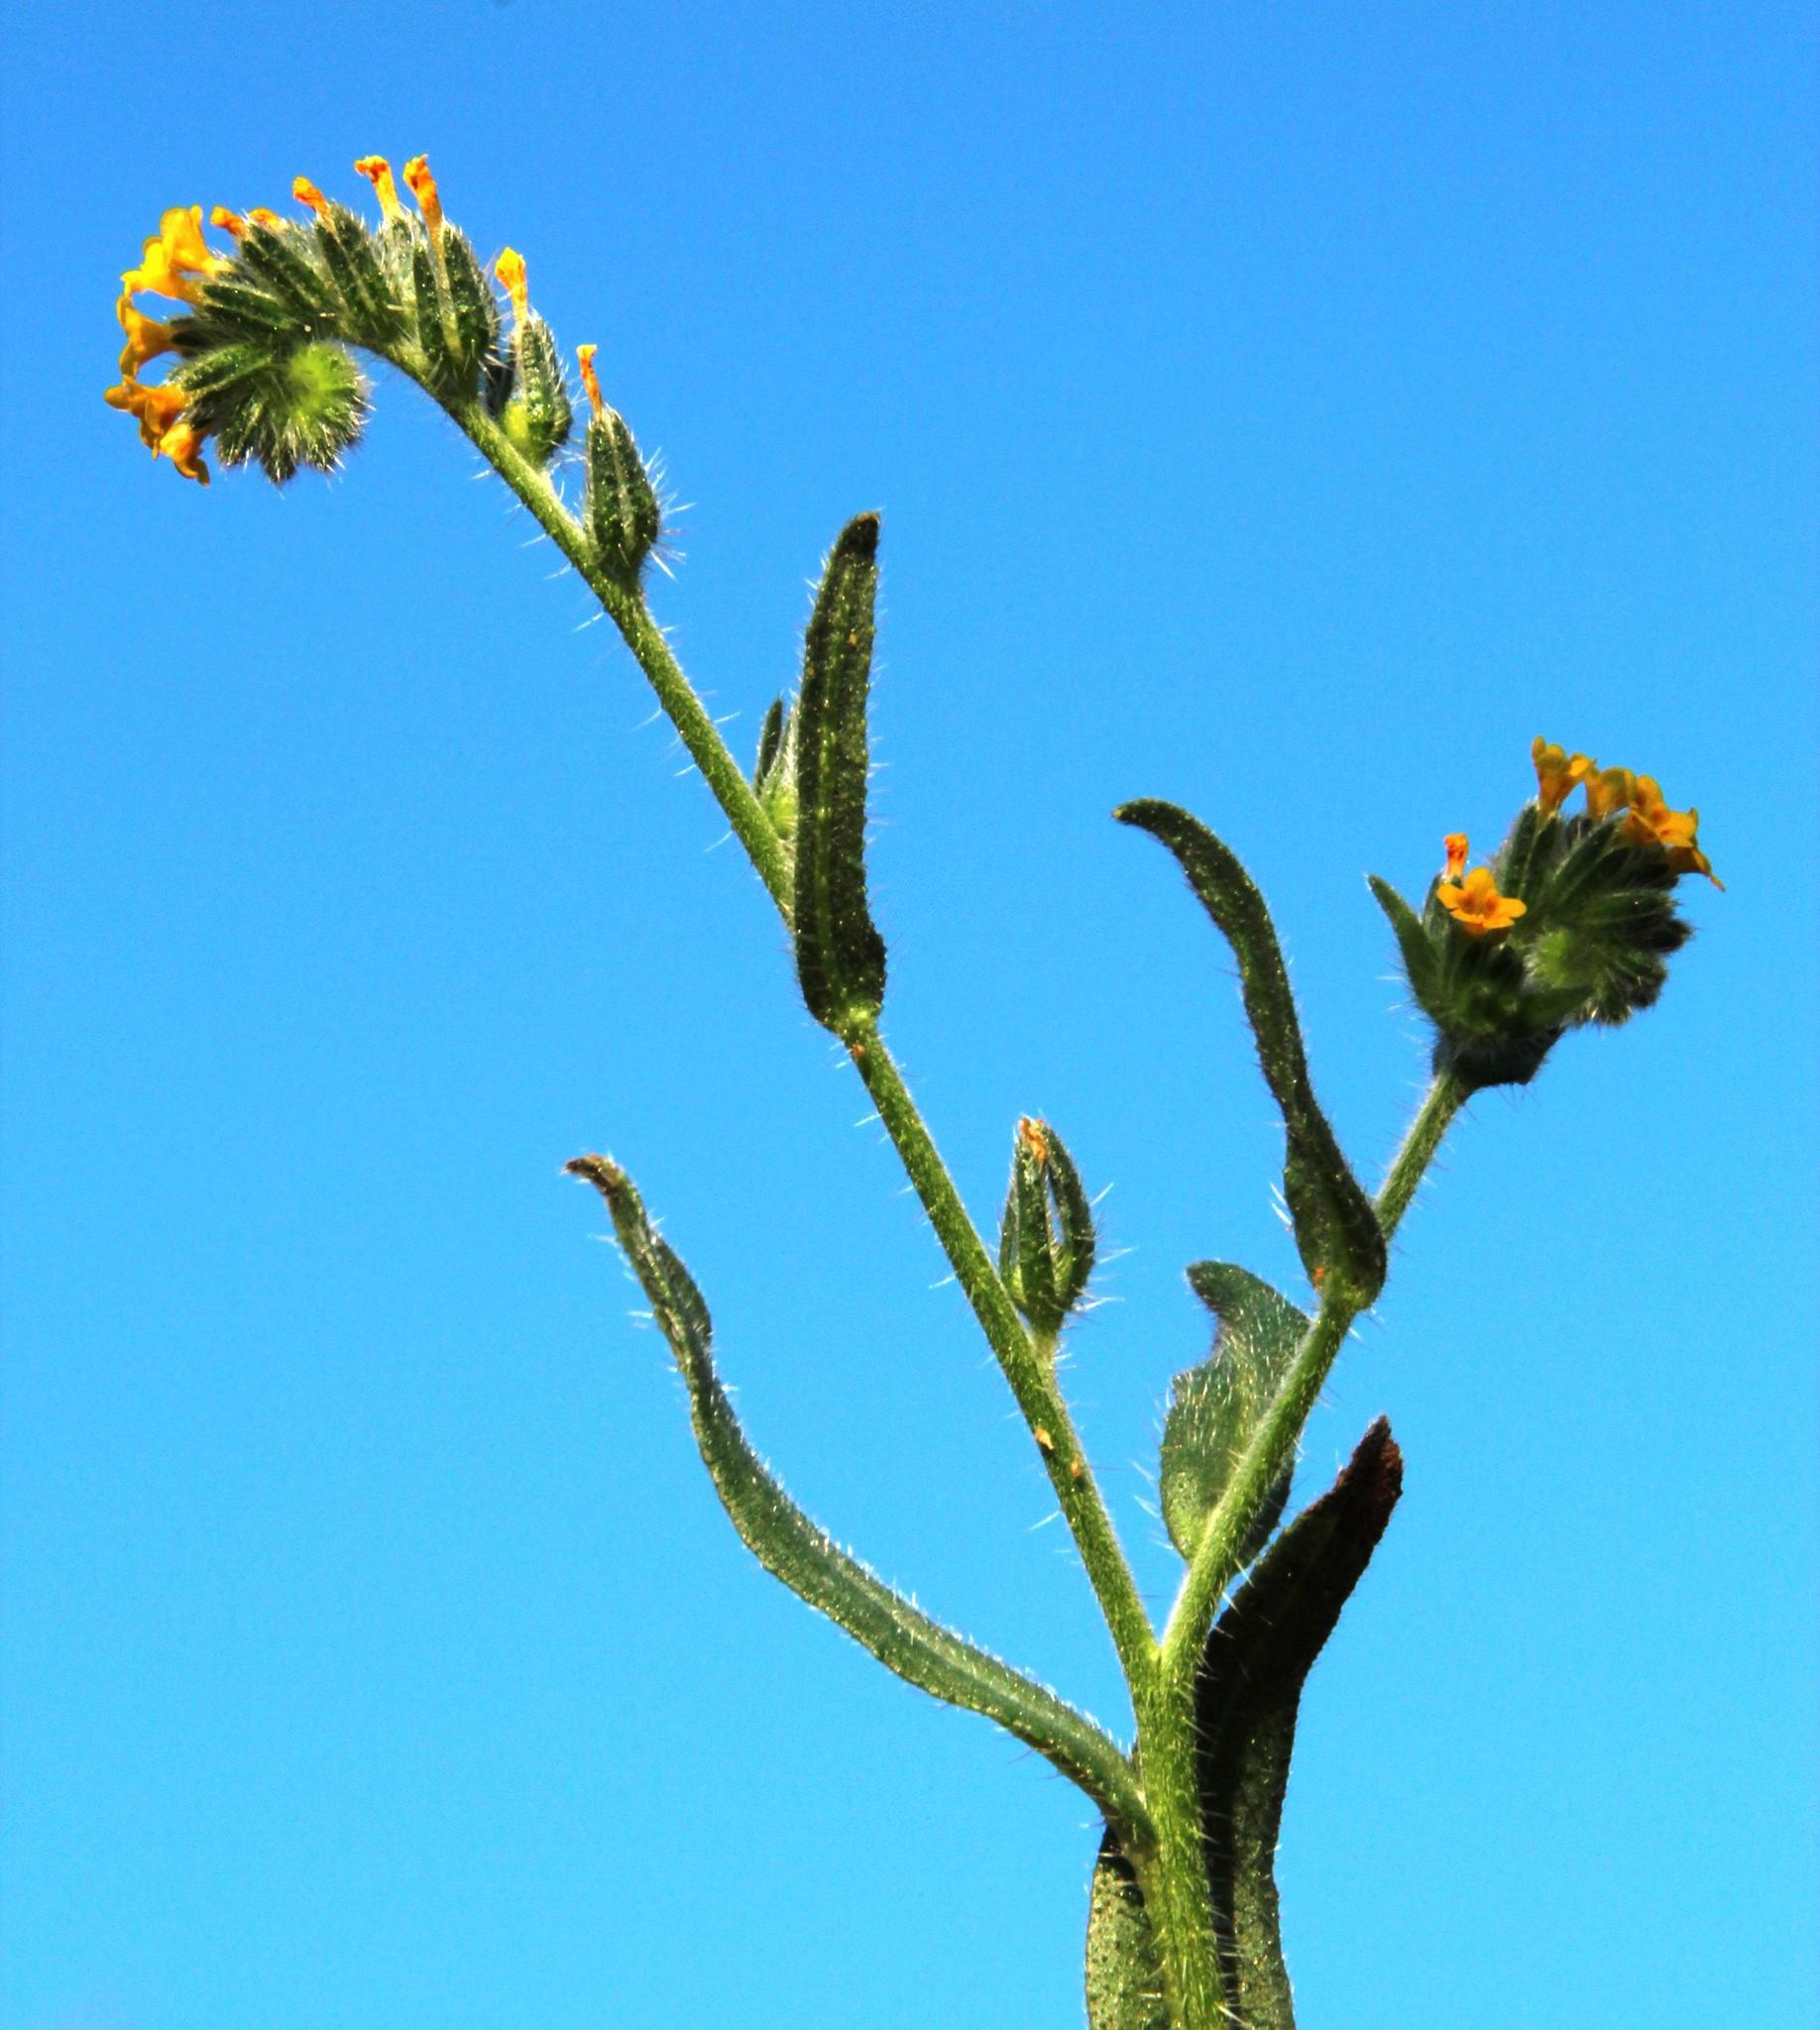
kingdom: Plantae
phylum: Tracheophyta
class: Magnoliopsida
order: Boraginales
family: Boraginaceae
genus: Amsinckia
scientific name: Amsinckia menziesii
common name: Menzies' fiddleneck
